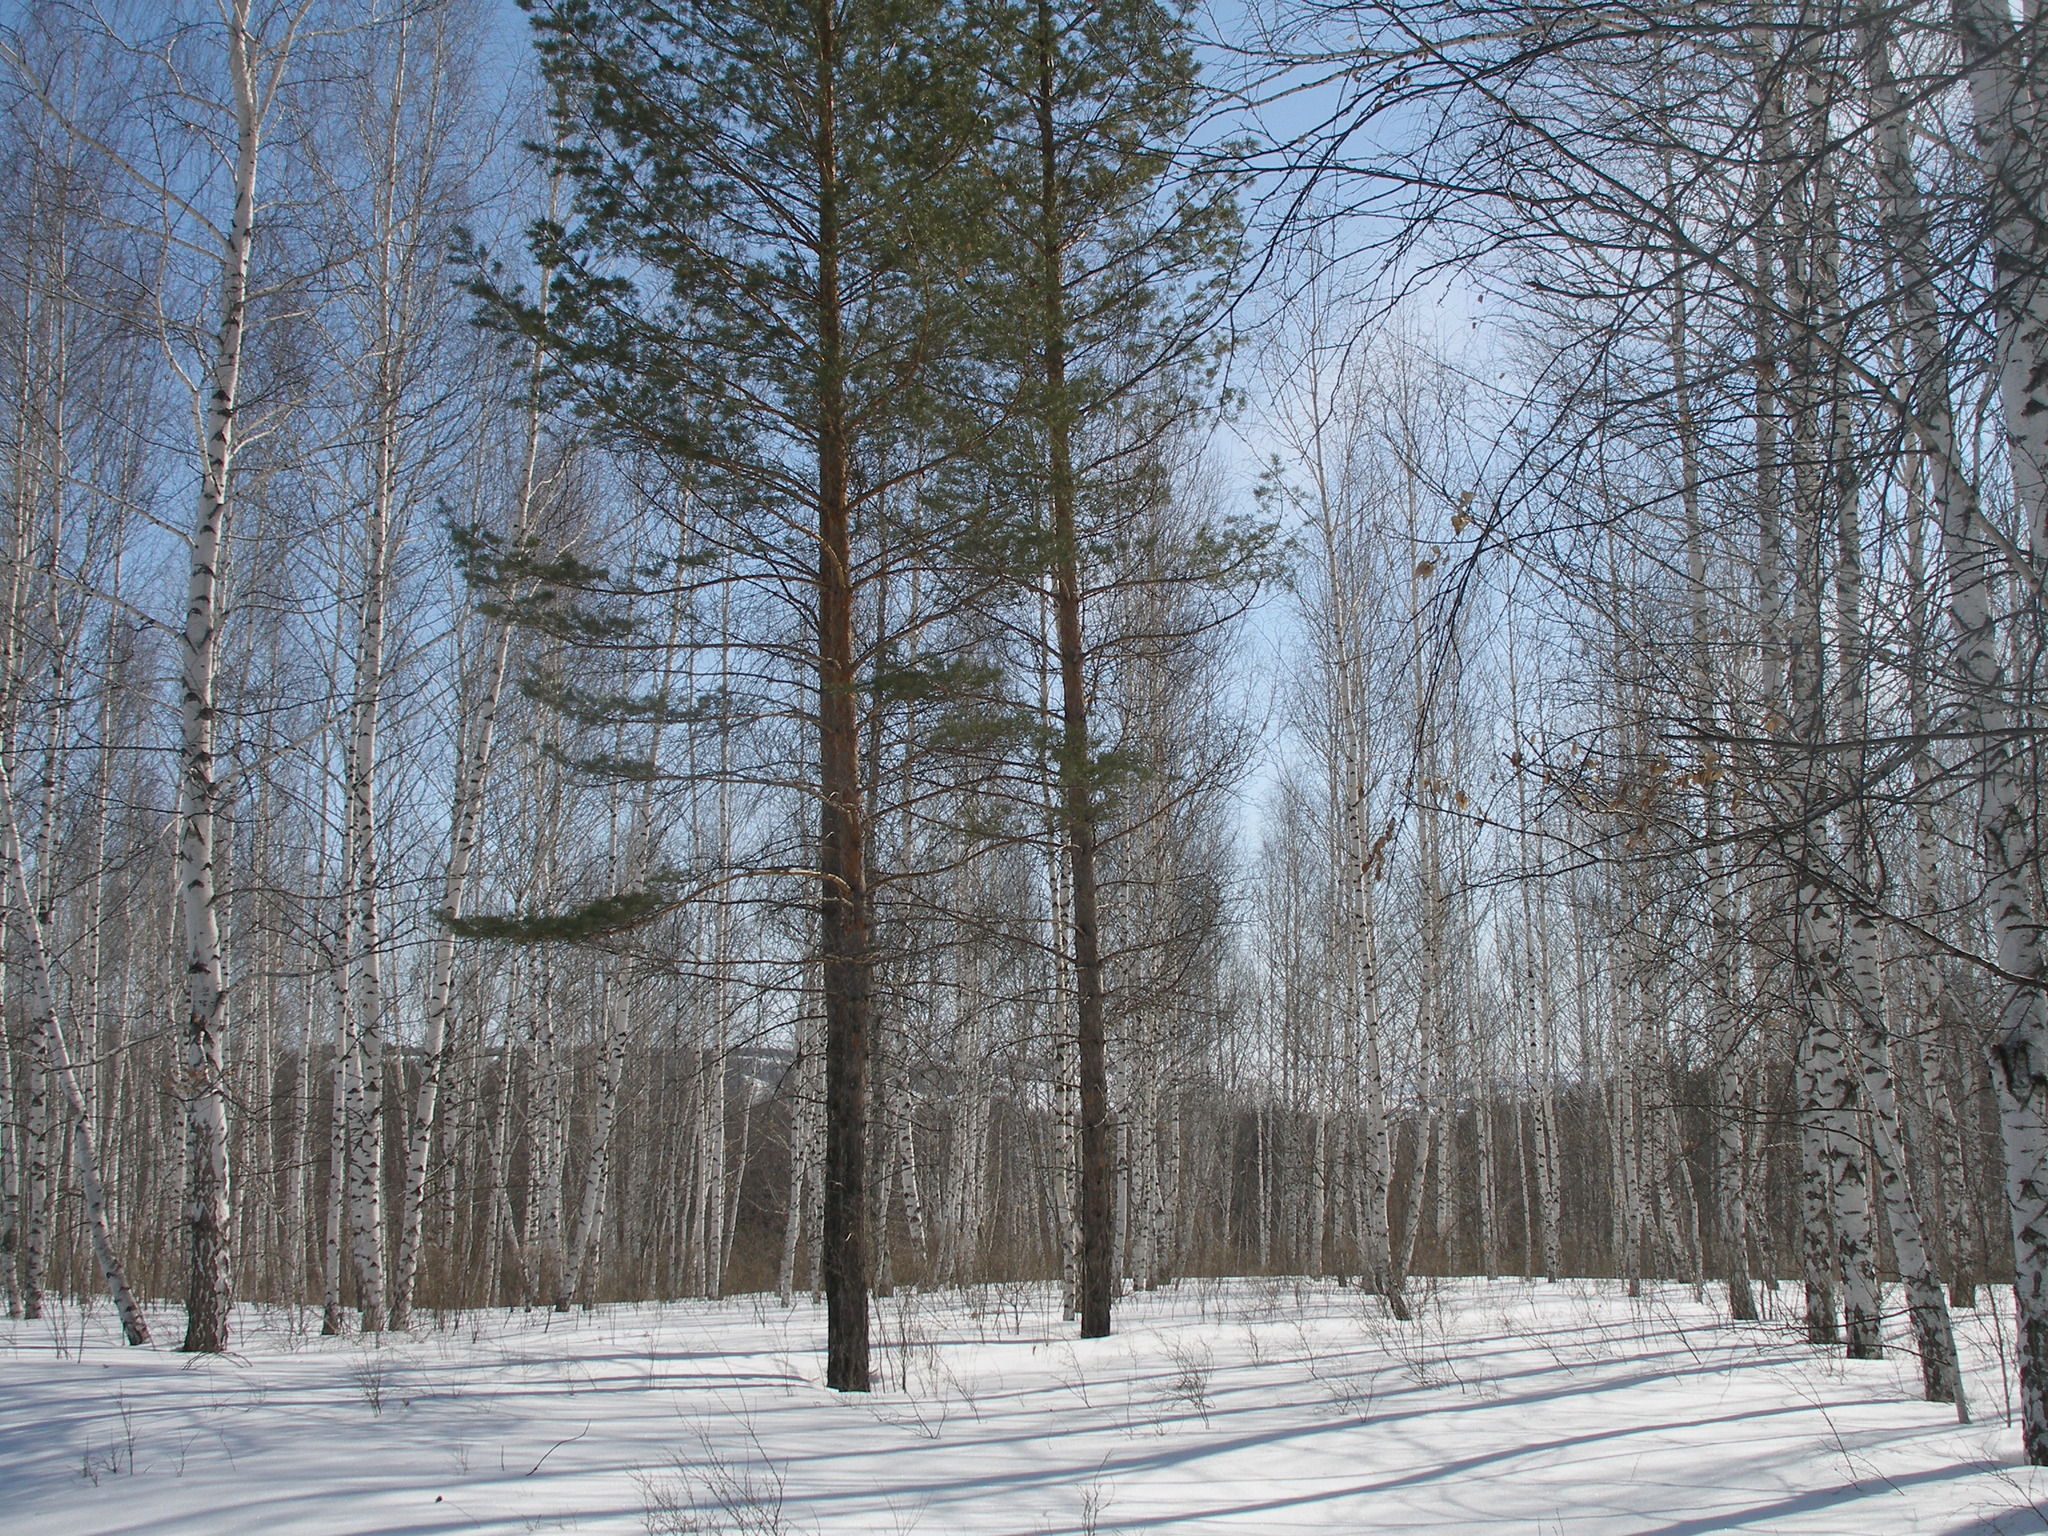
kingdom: Plantae
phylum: Tracheophyta
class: Pinopsida
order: Pinales
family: Pinaceae
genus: Pinus
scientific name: Pinus sylvestris
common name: Scots pine
